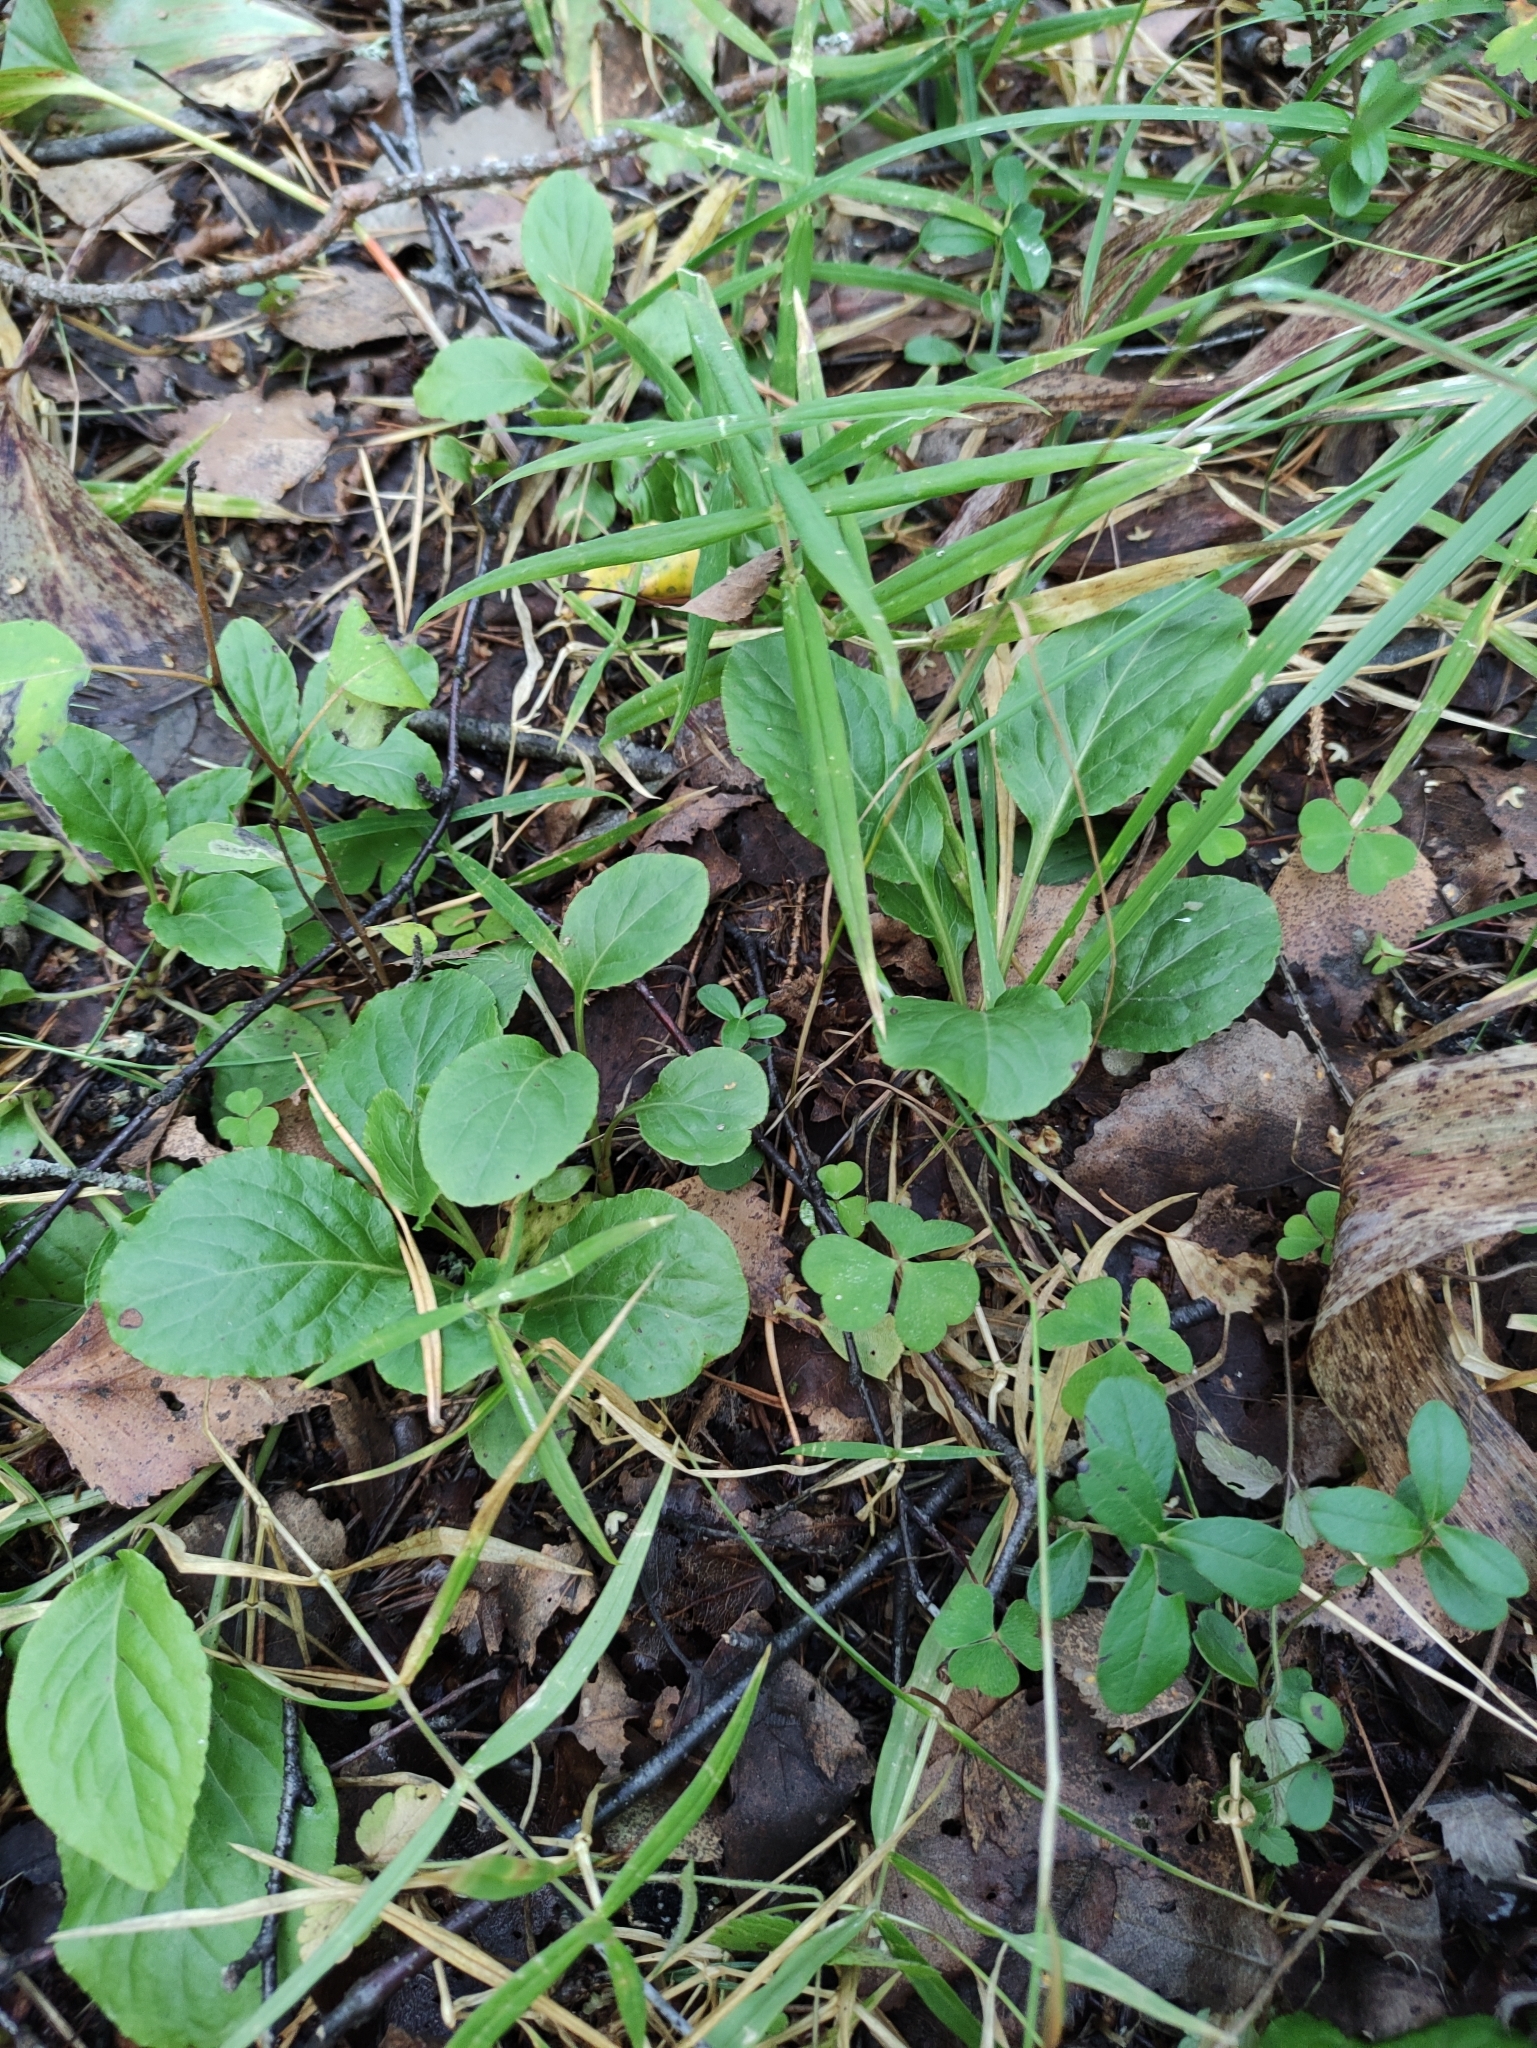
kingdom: Plantae
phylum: Tracheophyta
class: Magnoliopsida
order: Ericales
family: Ericaceae
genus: Pyrola
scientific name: Pyrola minor
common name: Common wintergreen
